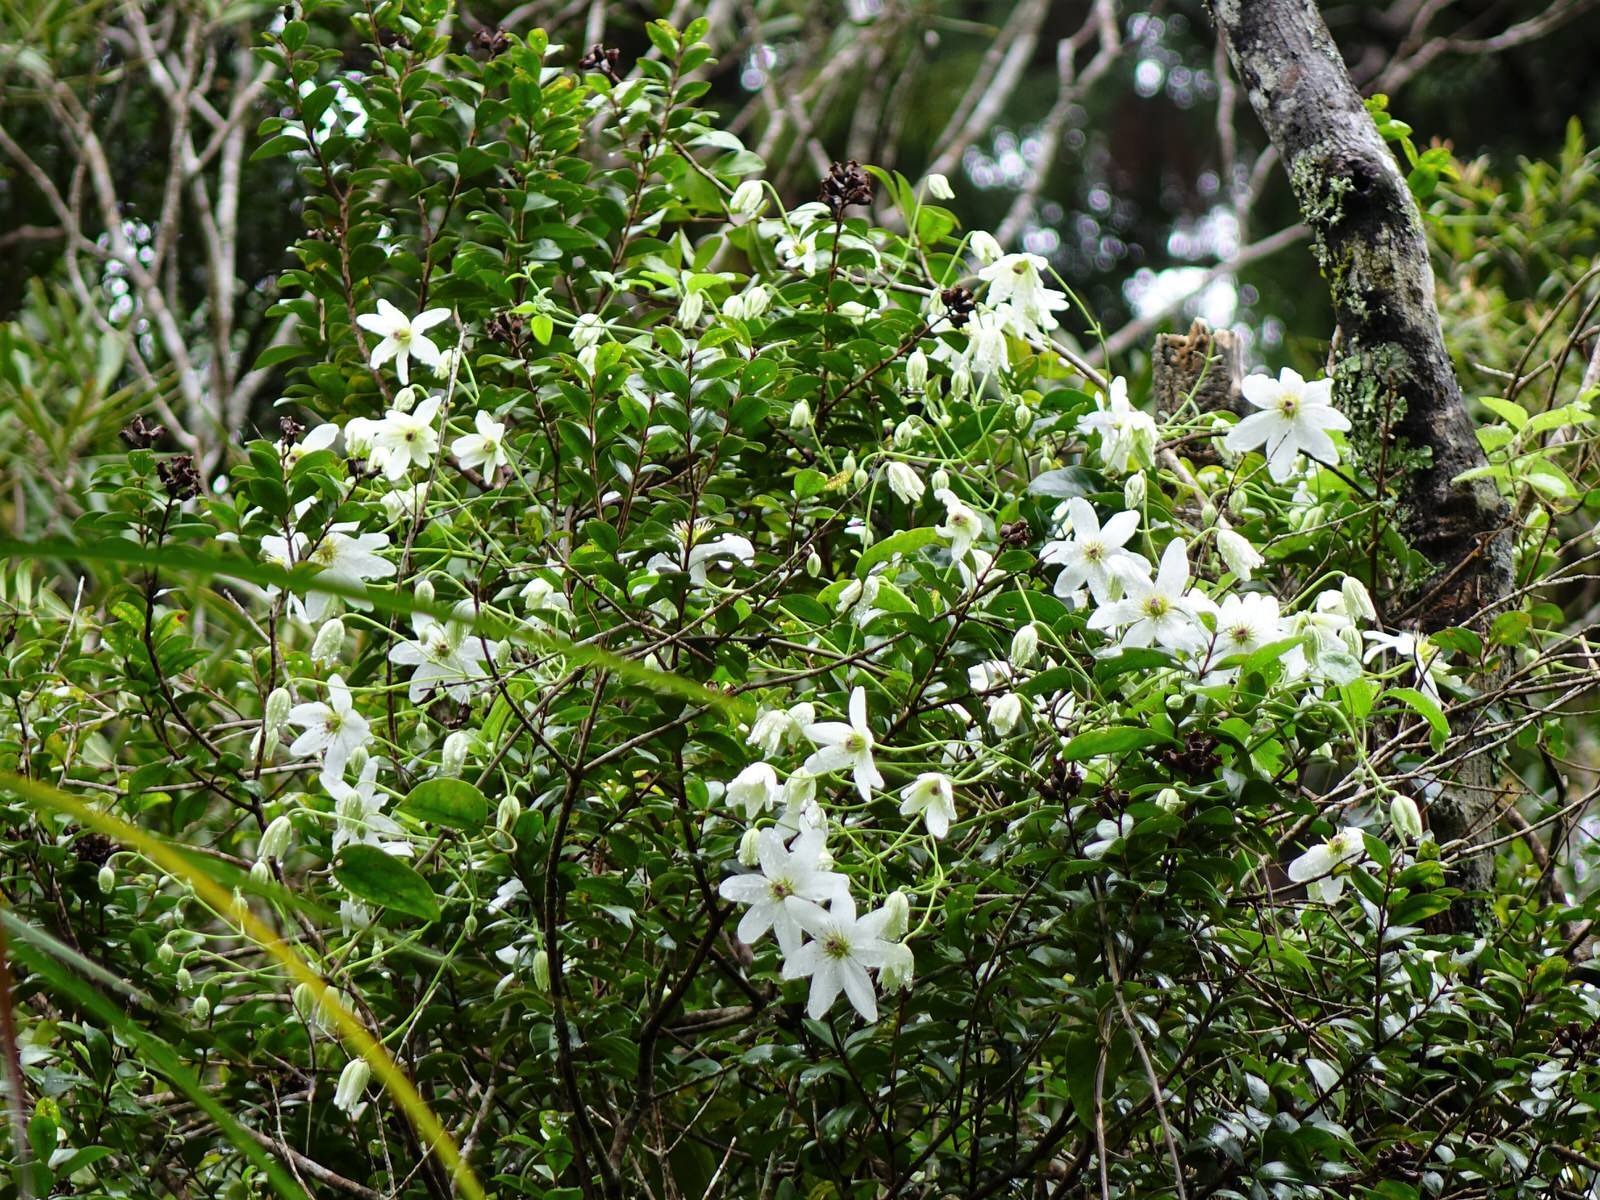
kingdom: Plantae
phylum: Tracheophyta
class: Magnoliopsida
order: Ranunculales
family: Ranunculaceae
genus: Clematis
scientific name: Clematis paniculata
